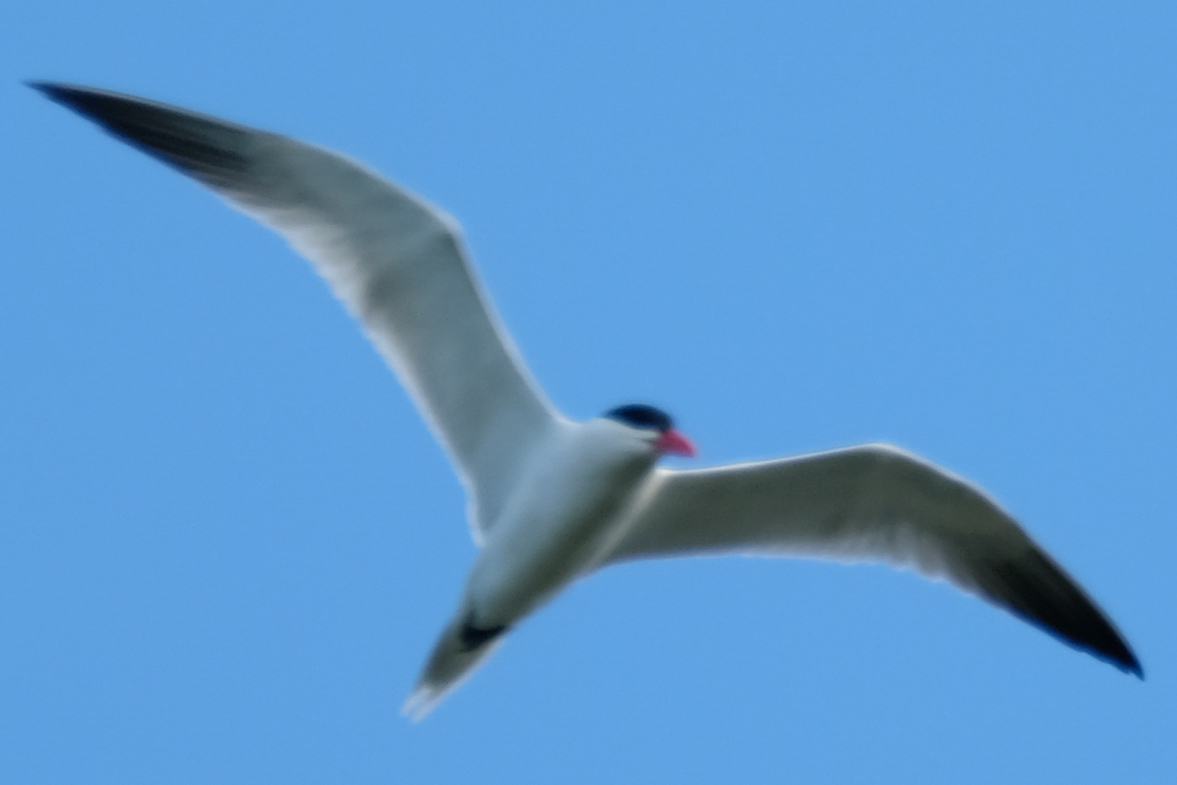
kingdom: Animalia
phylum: Chordata
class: Aves
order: Charadriiformes
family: Laridae
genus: Hydroprogne
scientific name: Hydroprogne caspia
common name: Caspian tern
